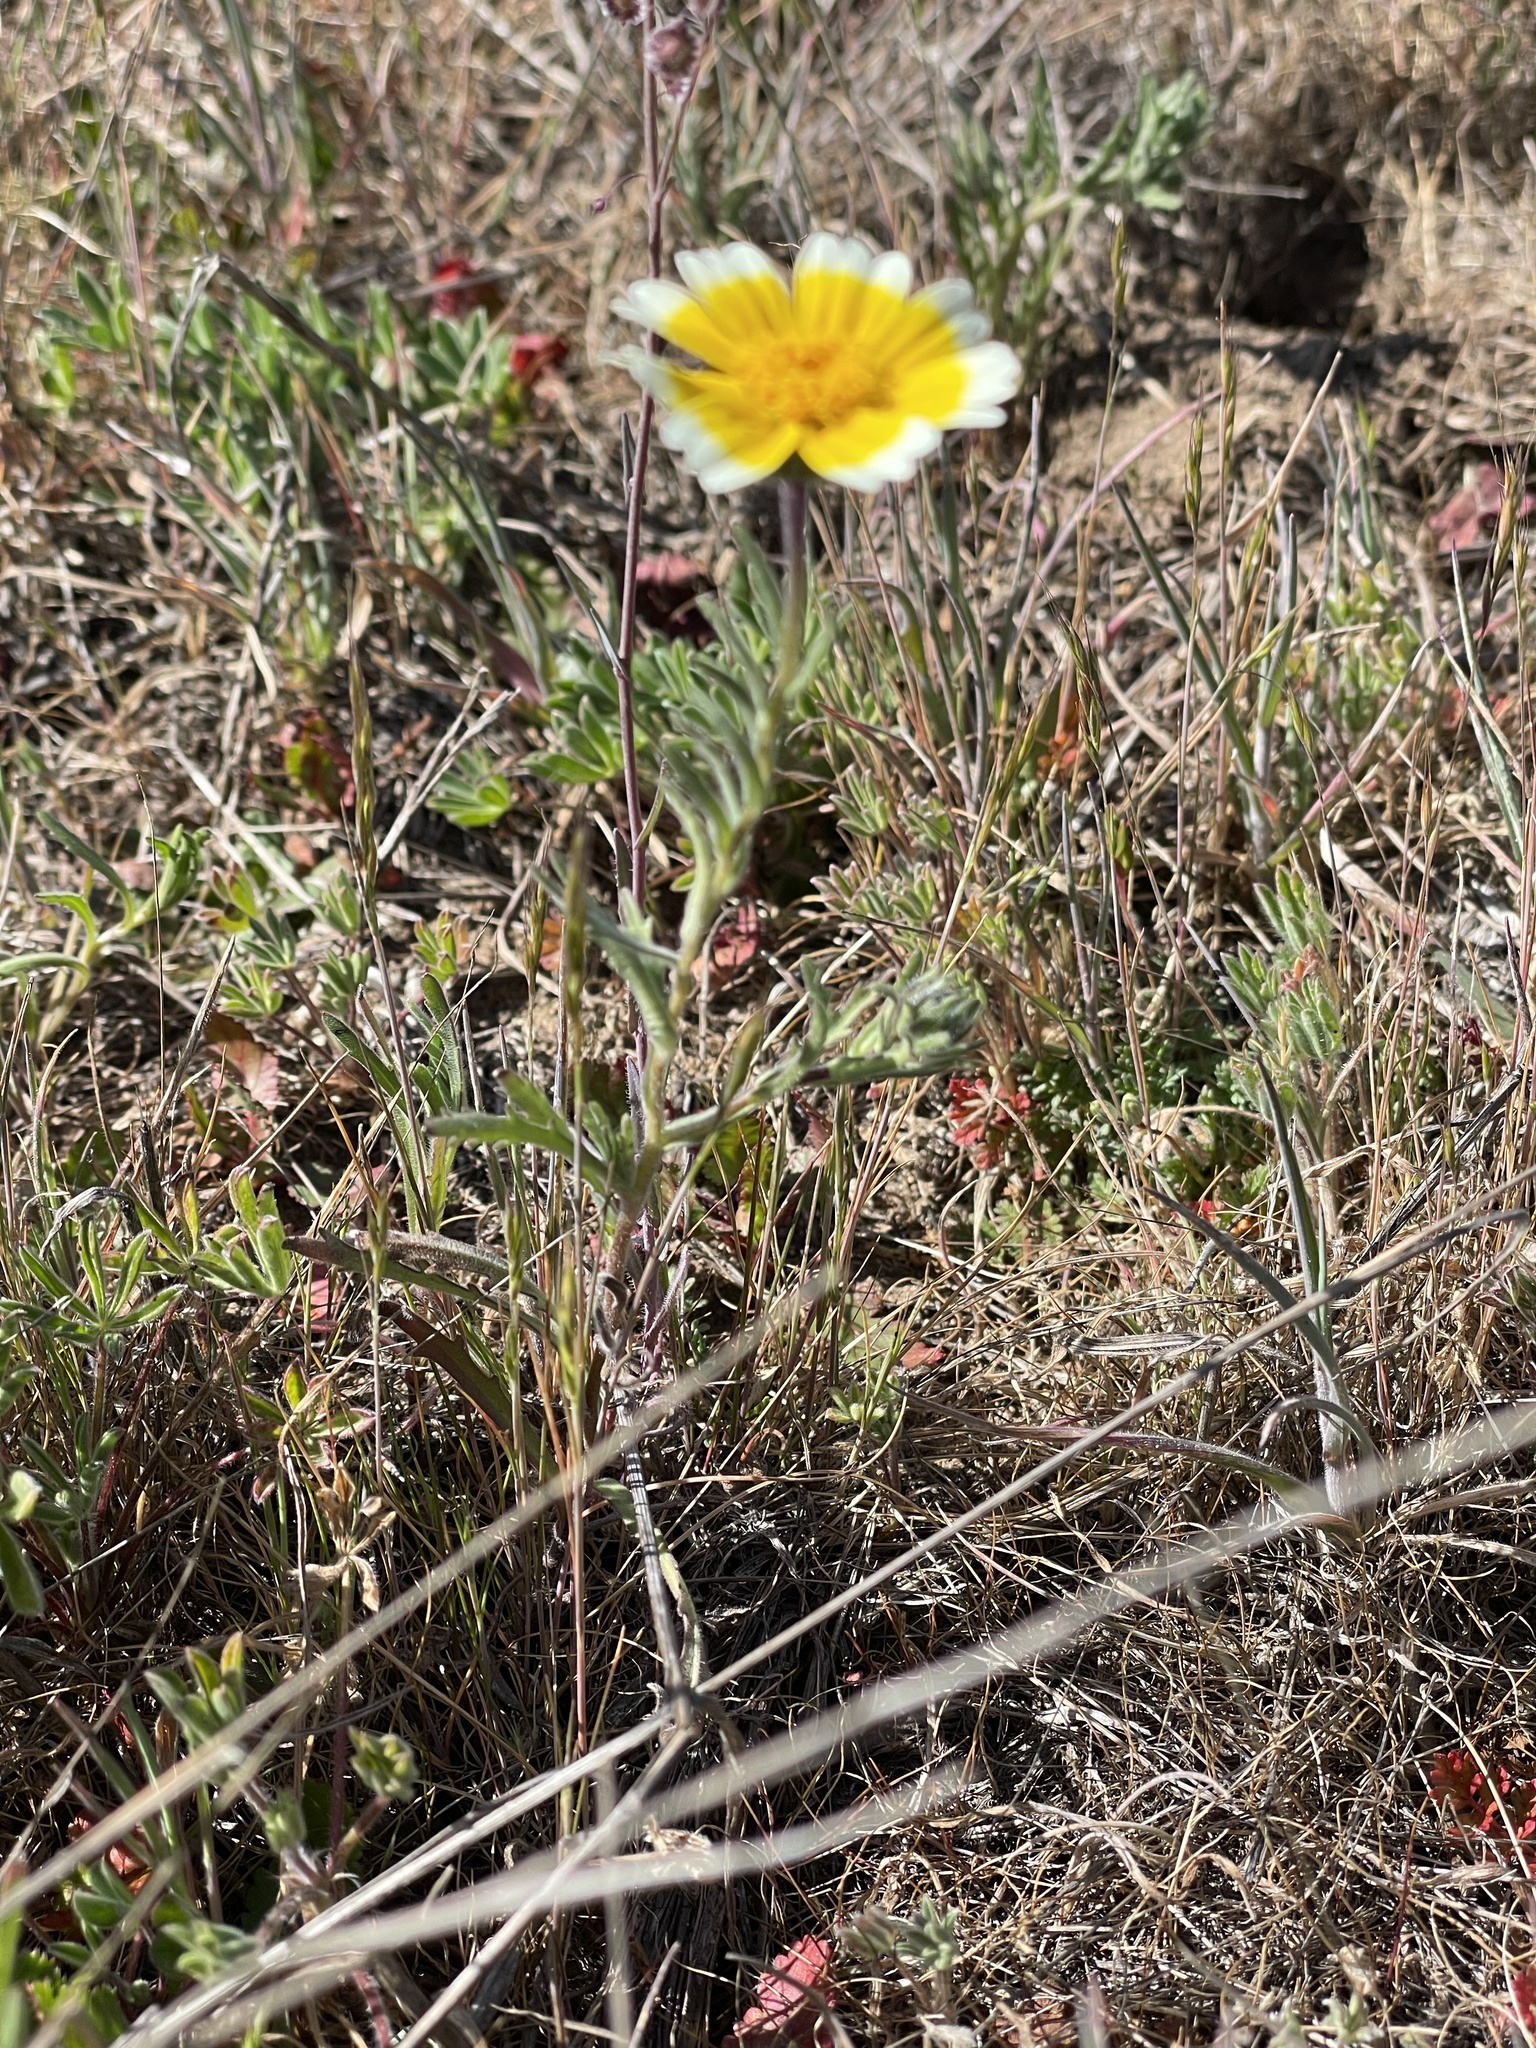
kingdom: Plantae
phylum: Tracheophyta
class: Magnoliopsida
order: Asterales
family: Asteraceae
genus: Layia
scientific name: Layia platyglossa
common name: Tidy-tips
